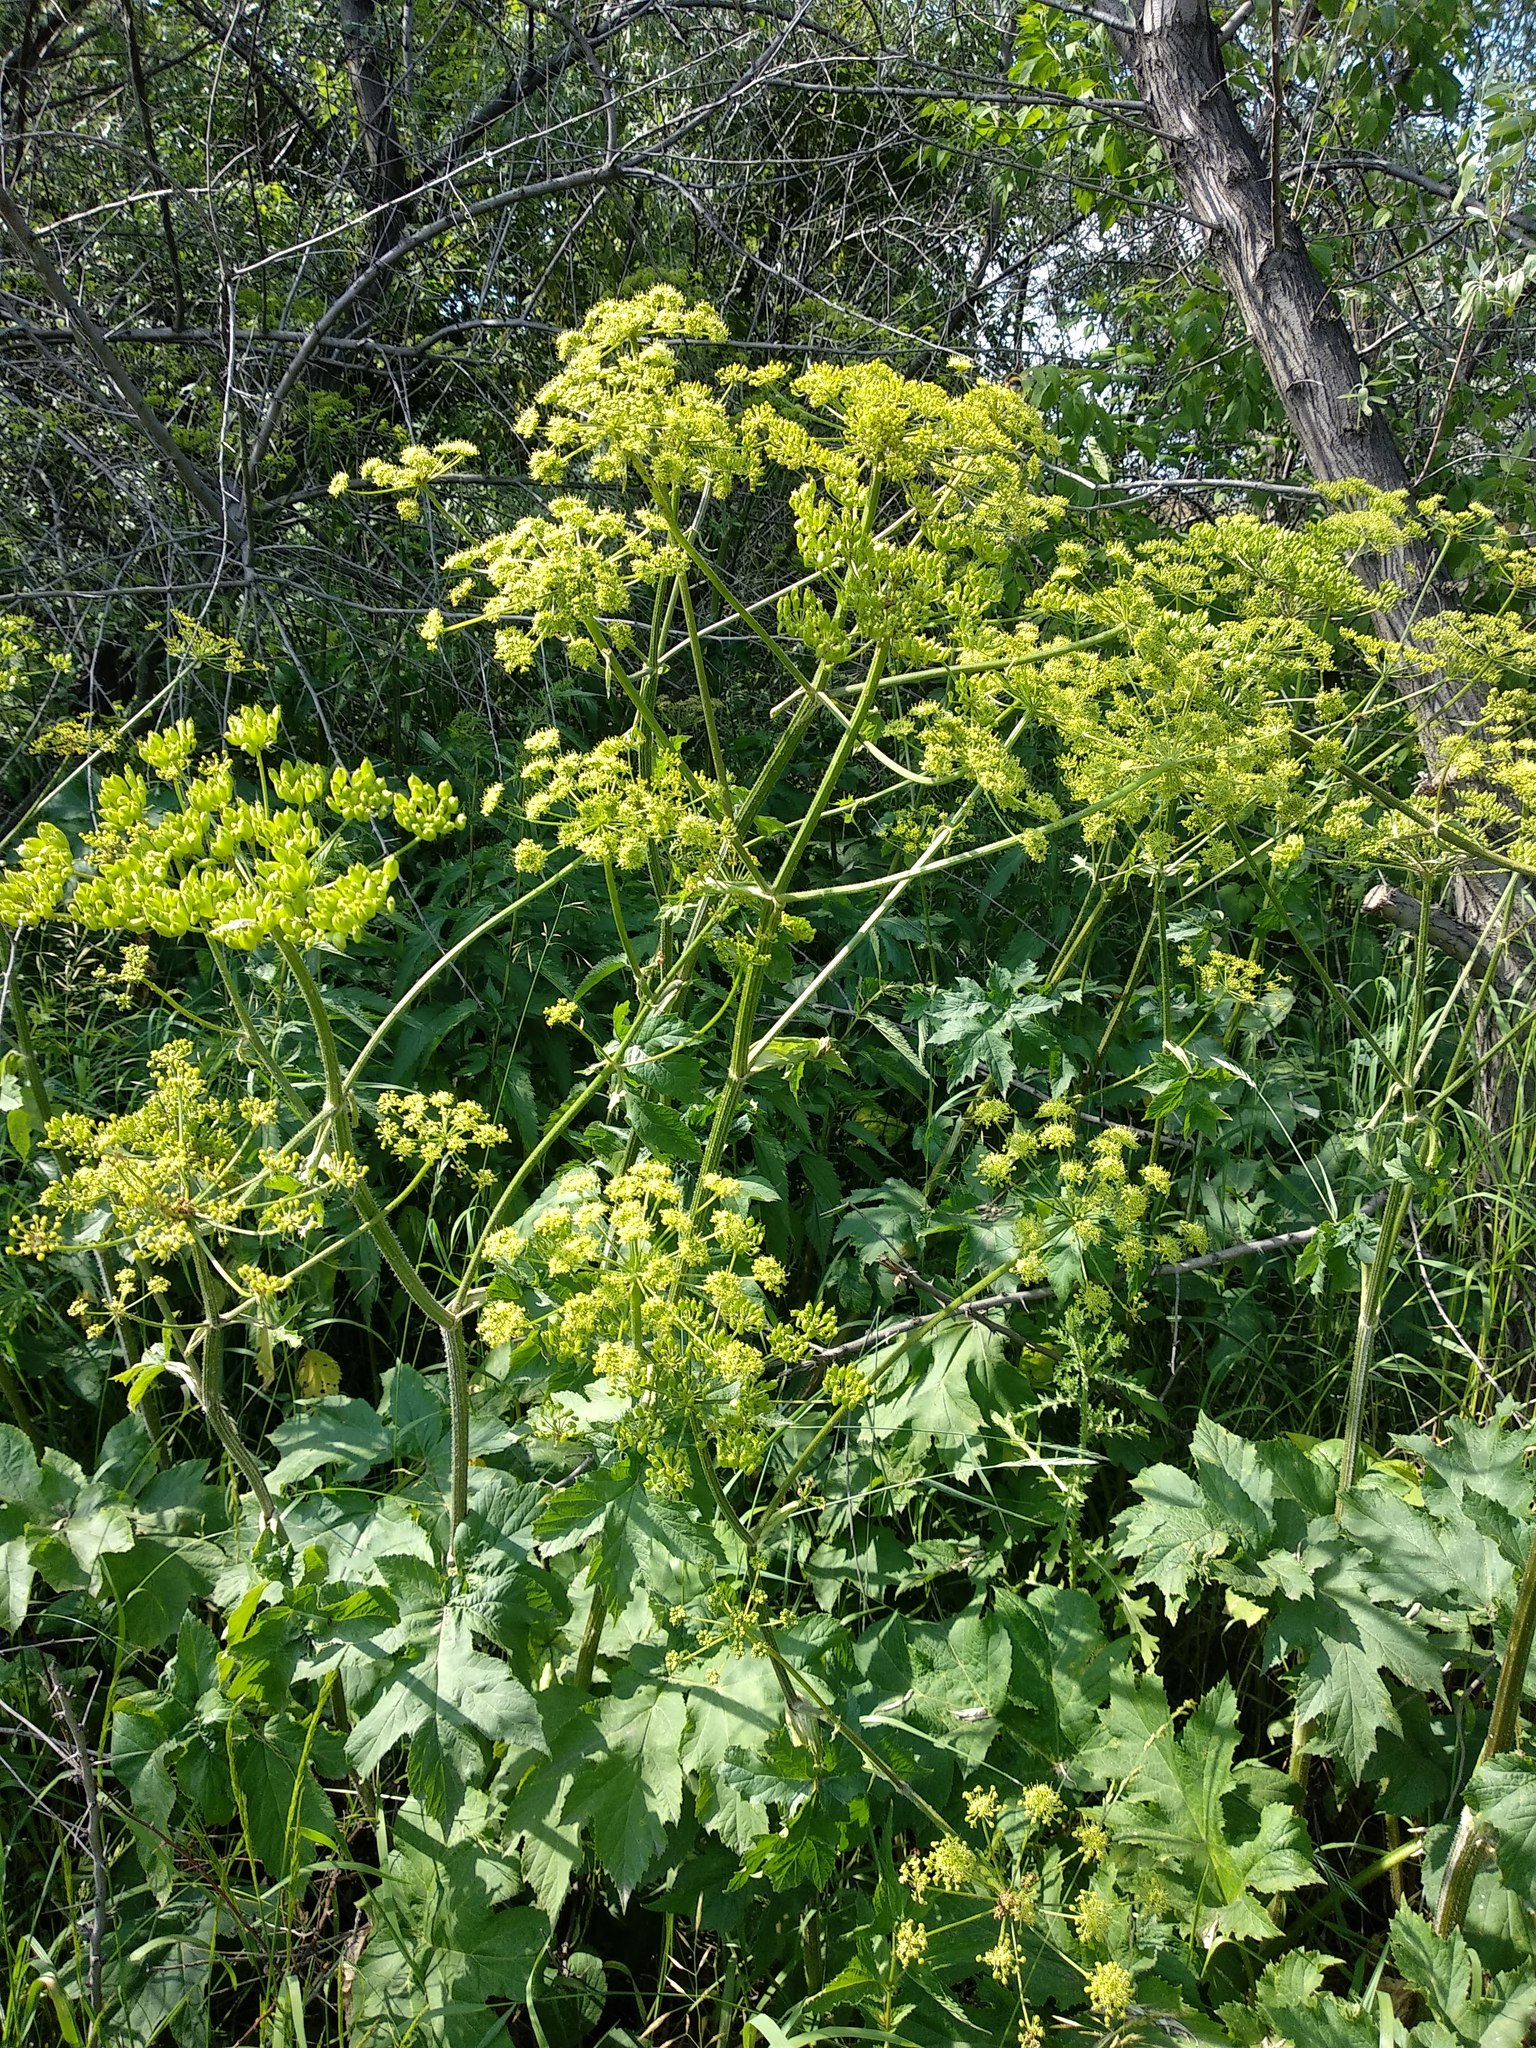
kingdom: Plantae
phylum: Tracheophyta
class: Magnoliopsida
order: Apiales
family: Apiaceae
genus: Heracleum
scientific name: Heracleum sphondylium
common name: Hogweed
